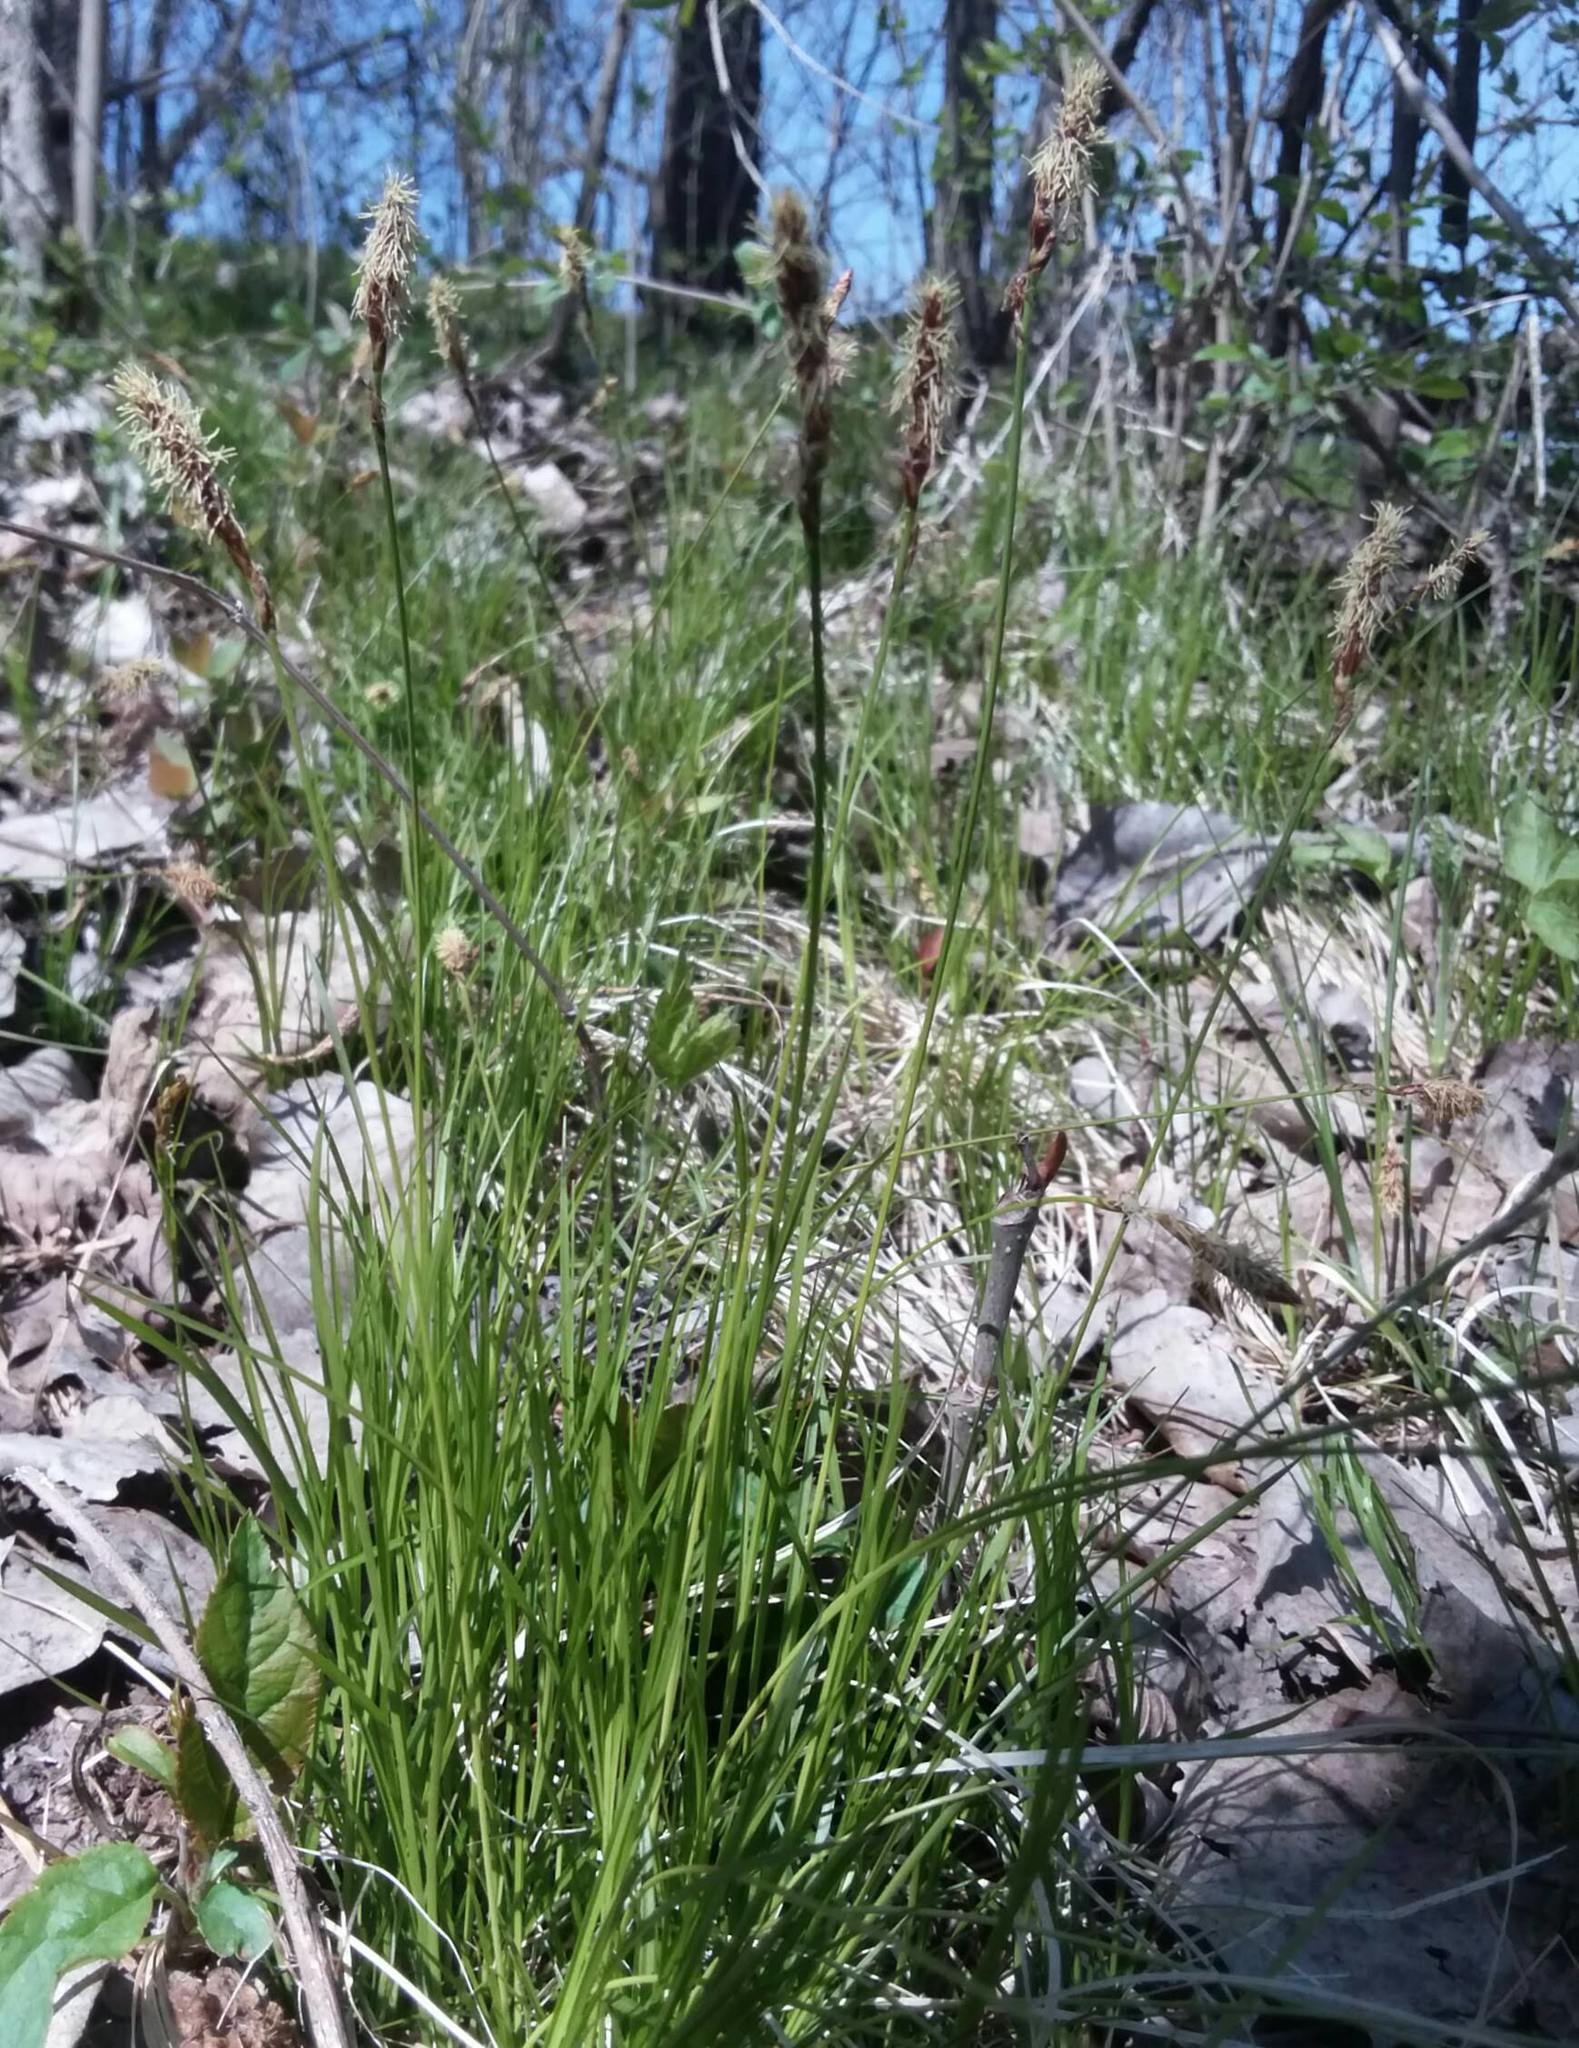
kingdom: Plantae
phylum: Tracheophyta
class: Liliopsida
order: Poales
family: Cyperaceae
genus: Carex
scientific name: Carex pensylvanica
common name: Common oak sedge
